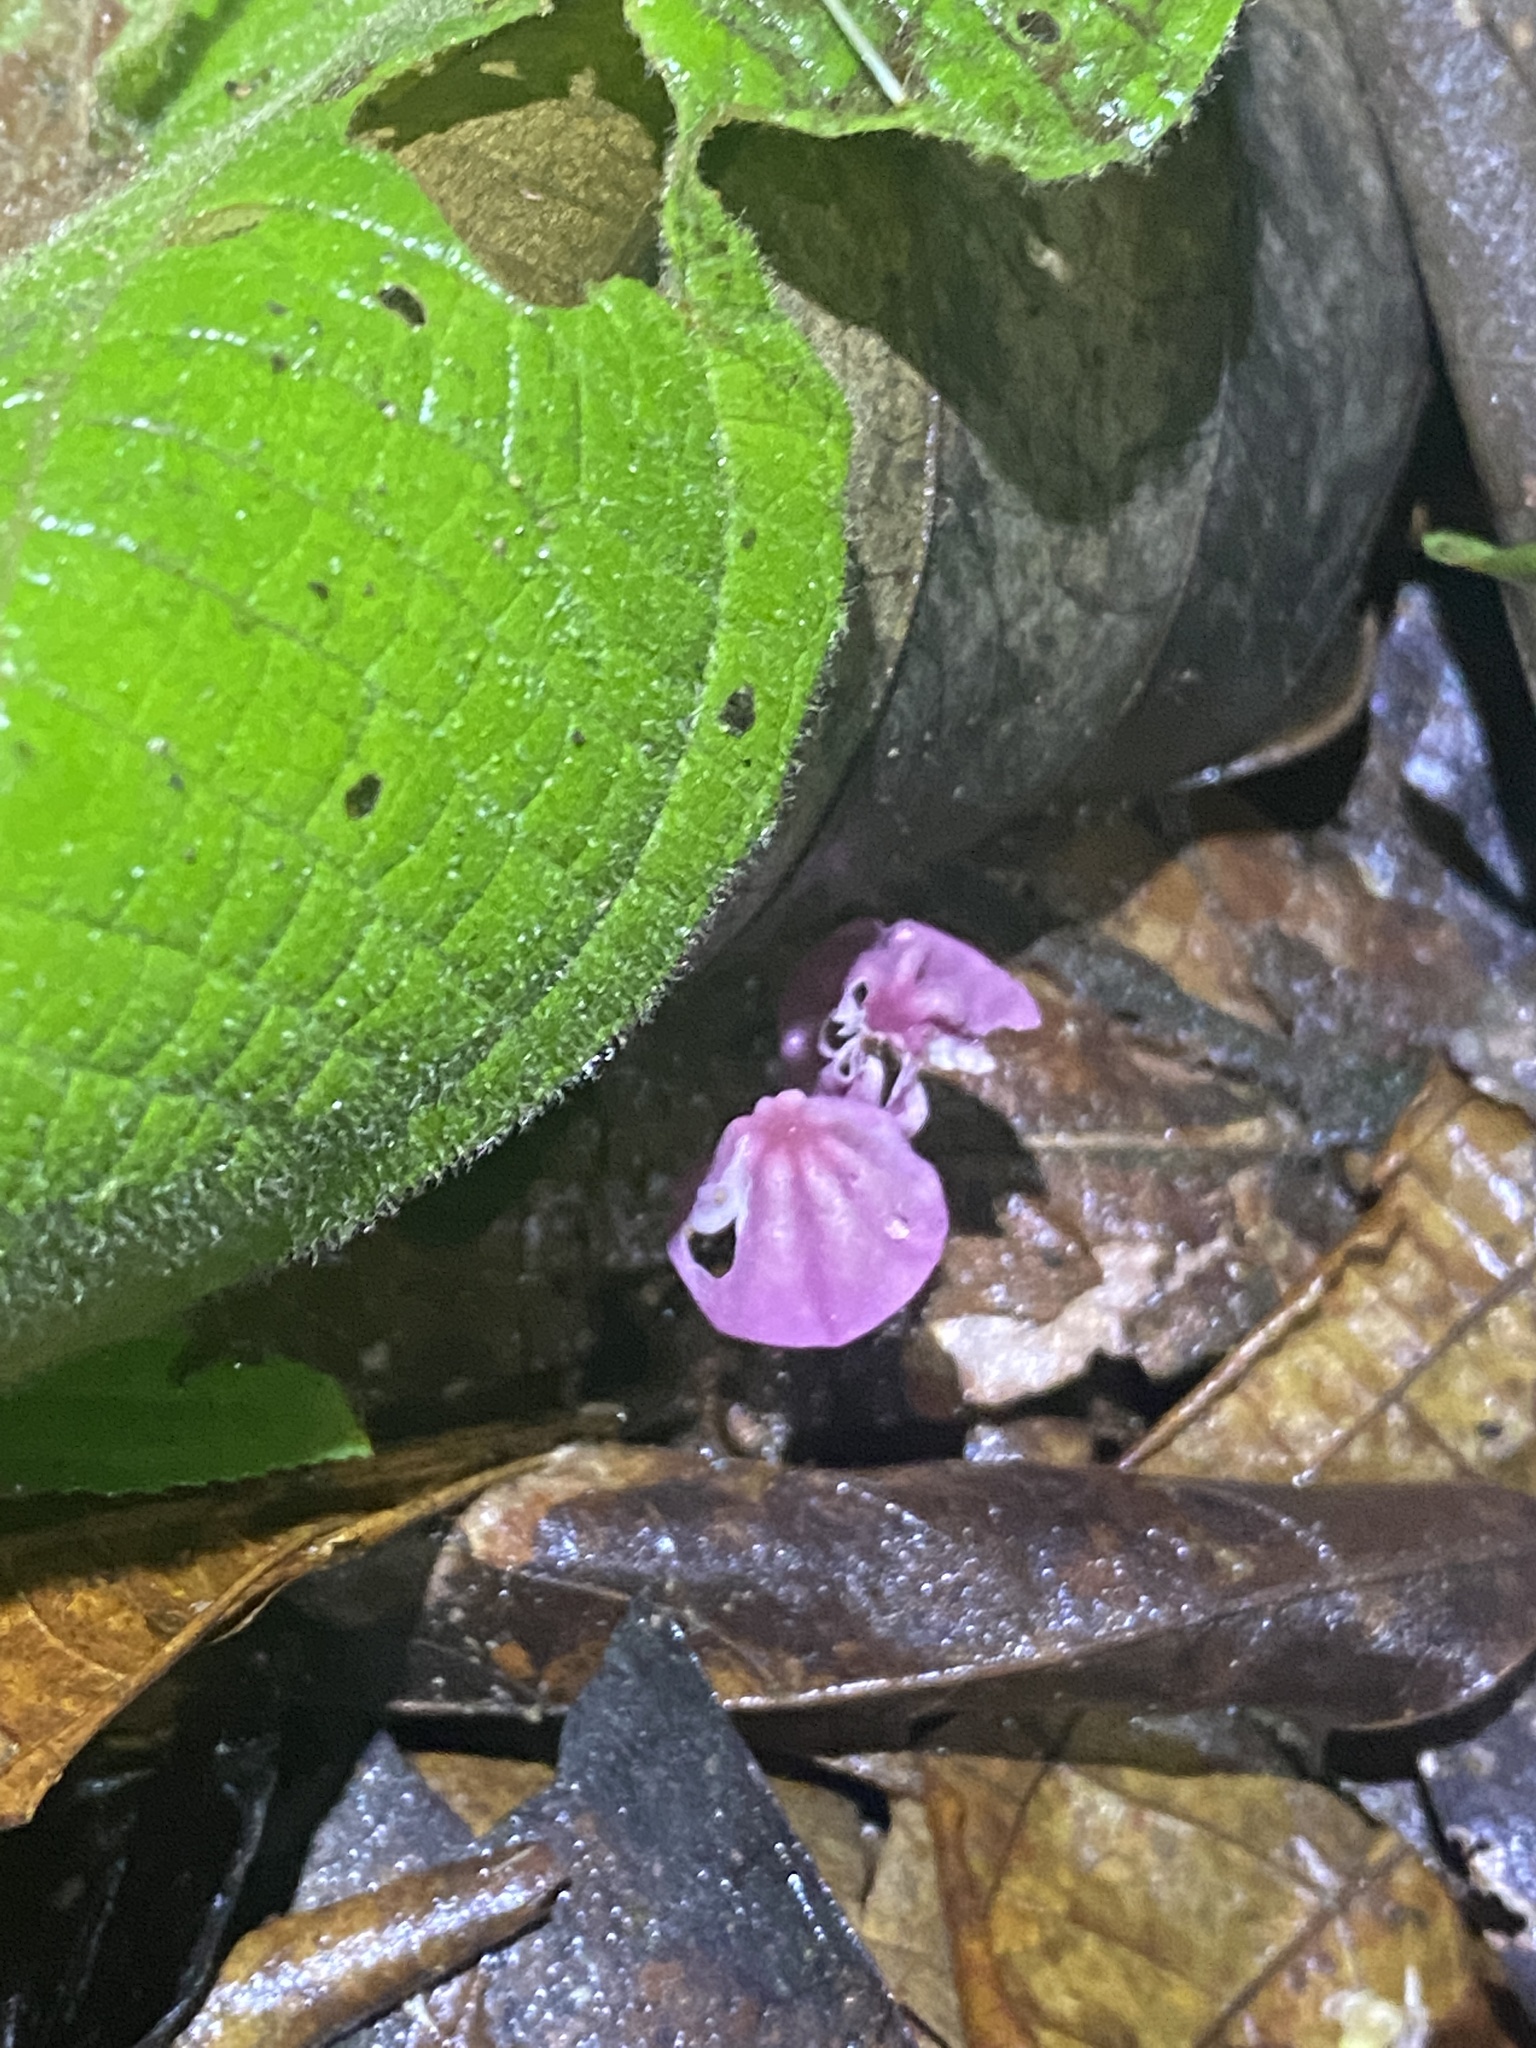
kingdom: Fungi
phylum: Basidiomycota
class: Agaricomycetes
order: Agaricales
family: Marasmiaceae
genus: Marasmius
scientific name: Marasmius haematocephalus
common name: Purple pinwheel
